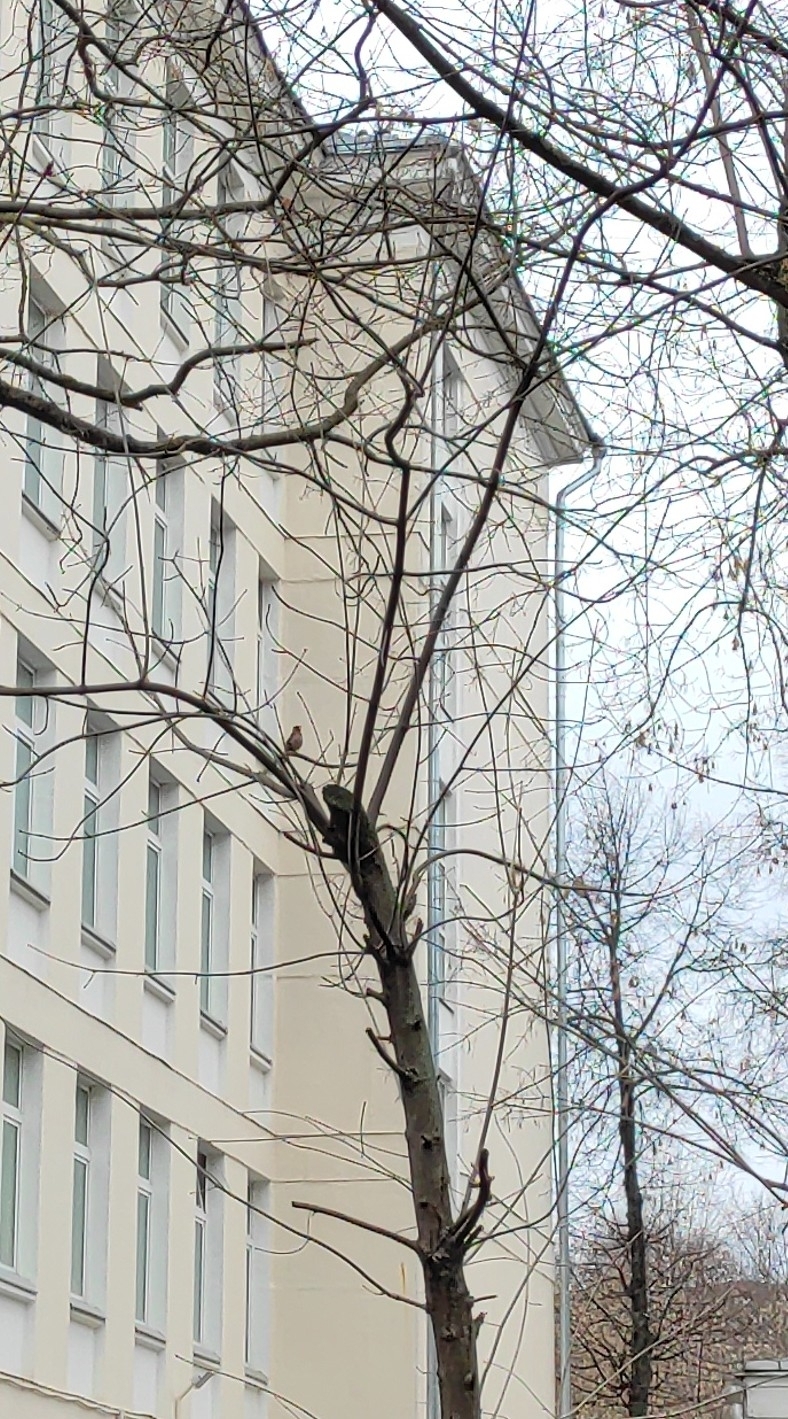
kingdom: Animalia
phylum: Chordata
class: Aves
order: Passeriformes
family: Fringillidae
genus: Fringilla
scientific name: Fringilla coelebs
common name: Common chaffinch
